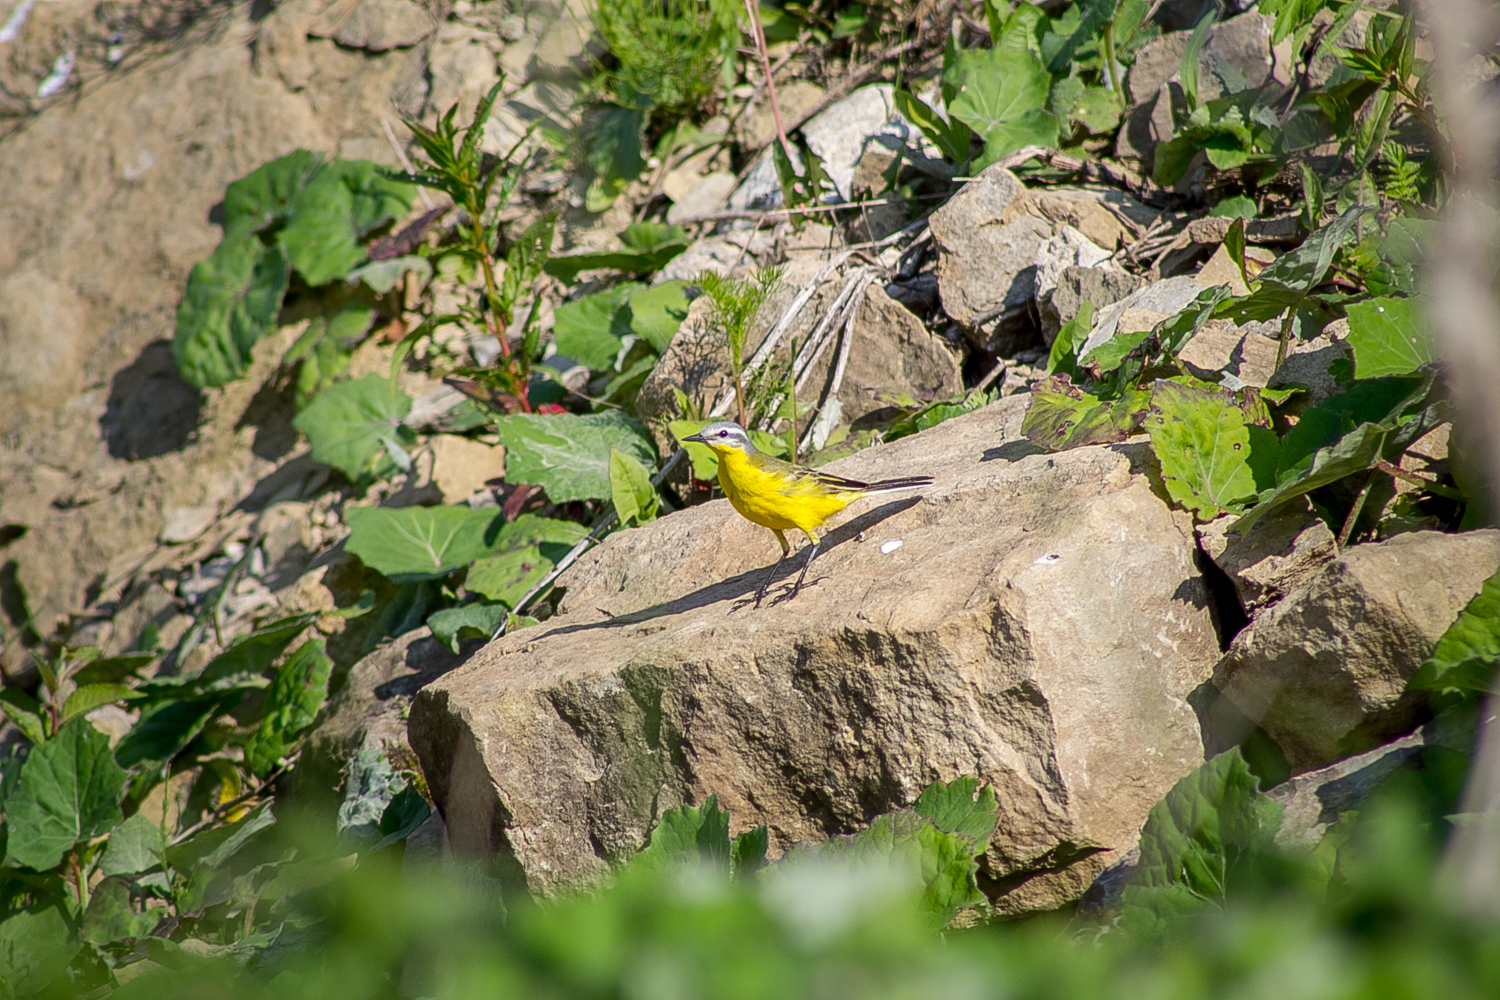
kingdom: Animalia
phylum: Chordata
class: Aves
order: Passeriformes
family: Motacillidae
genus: Motacilla
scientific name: Motacilla flava
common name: Western yellow wagtail
